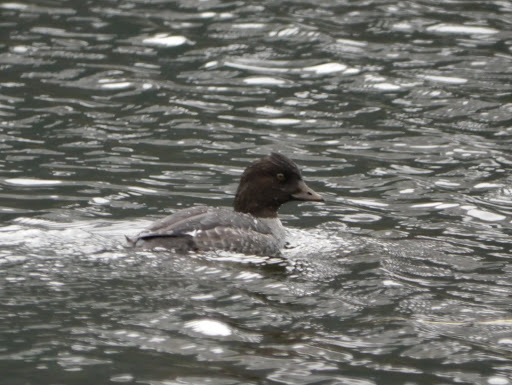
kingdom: Animalia
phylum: Chordata
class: Aves
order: Anseriformes
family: Anatidae
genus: Bucephala
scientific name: Bucephala islandica
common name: Barrow's goldeneye
